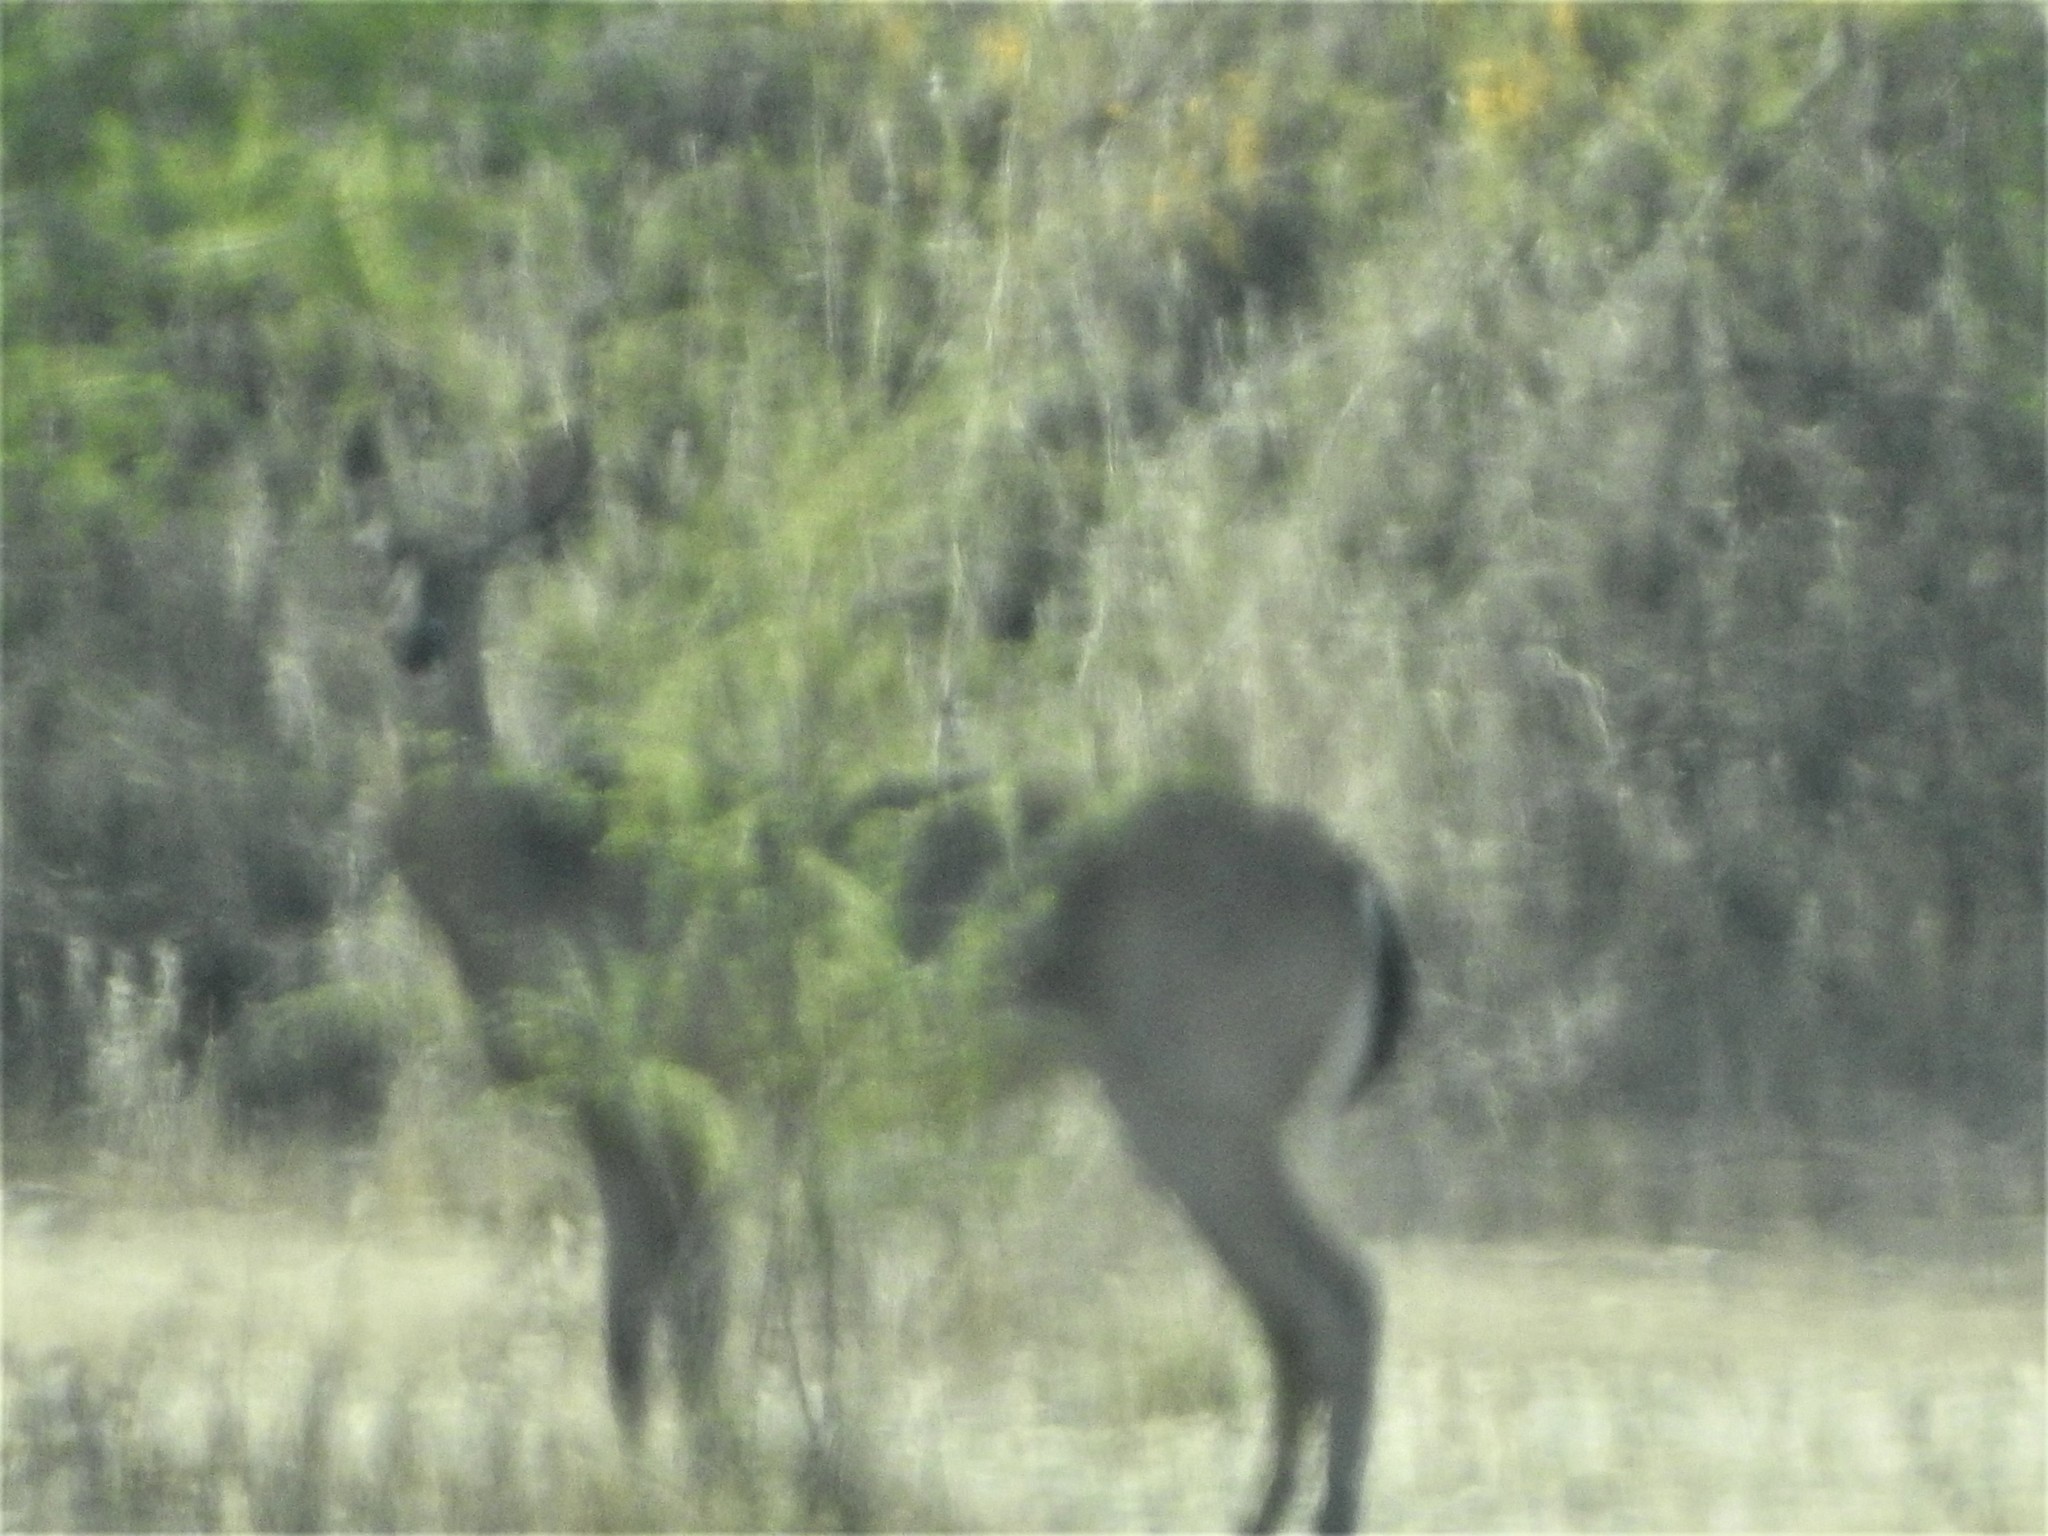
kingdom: Animalia
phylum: Chordata
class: Mammalia
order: Artiodactyla
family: Cervidae
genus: Odocoileus
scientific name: Odocoileus virginianus
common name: White-tailed deer
